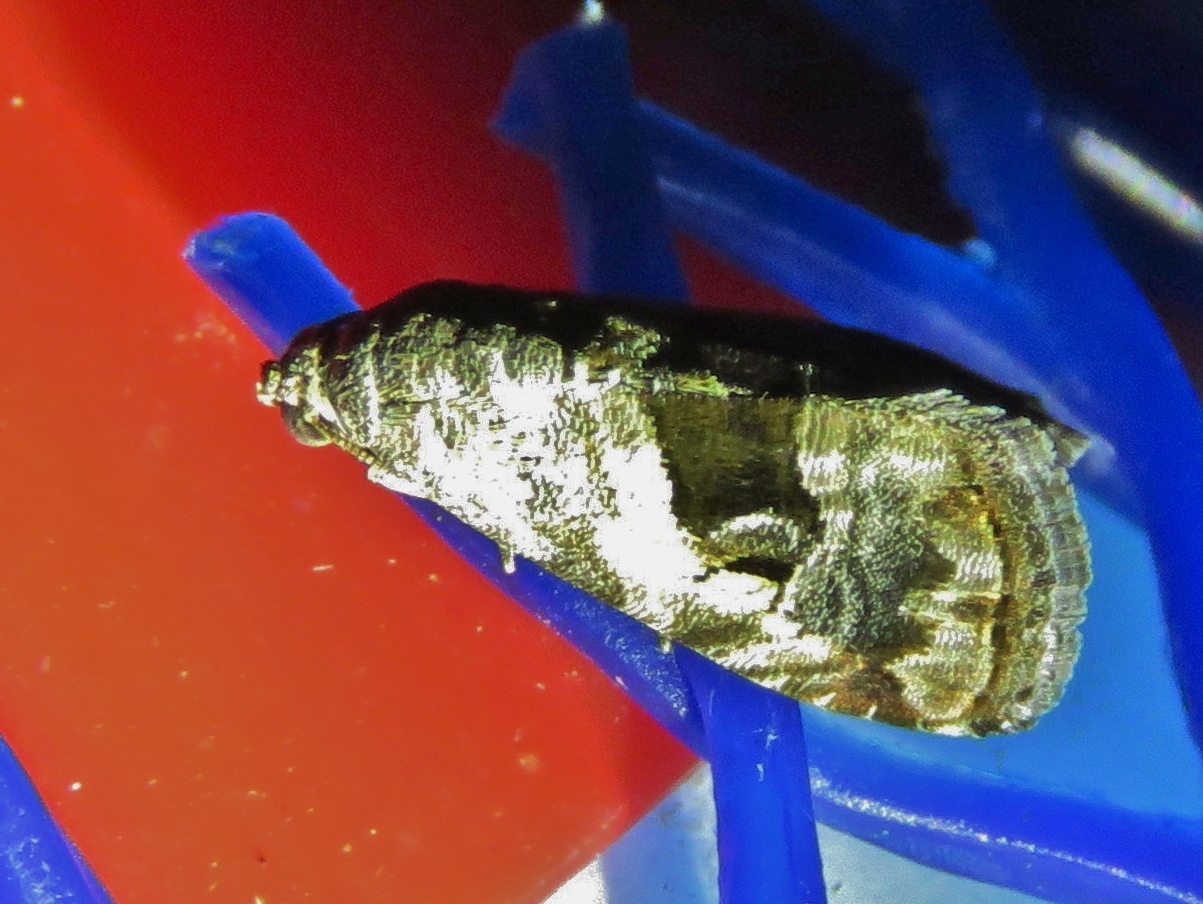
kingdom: Animalia
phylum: Arthropoda
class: Insecta
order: Lepidoptera
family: Noctuidae
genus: Tripudia
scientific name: Tripudia quadrifera
